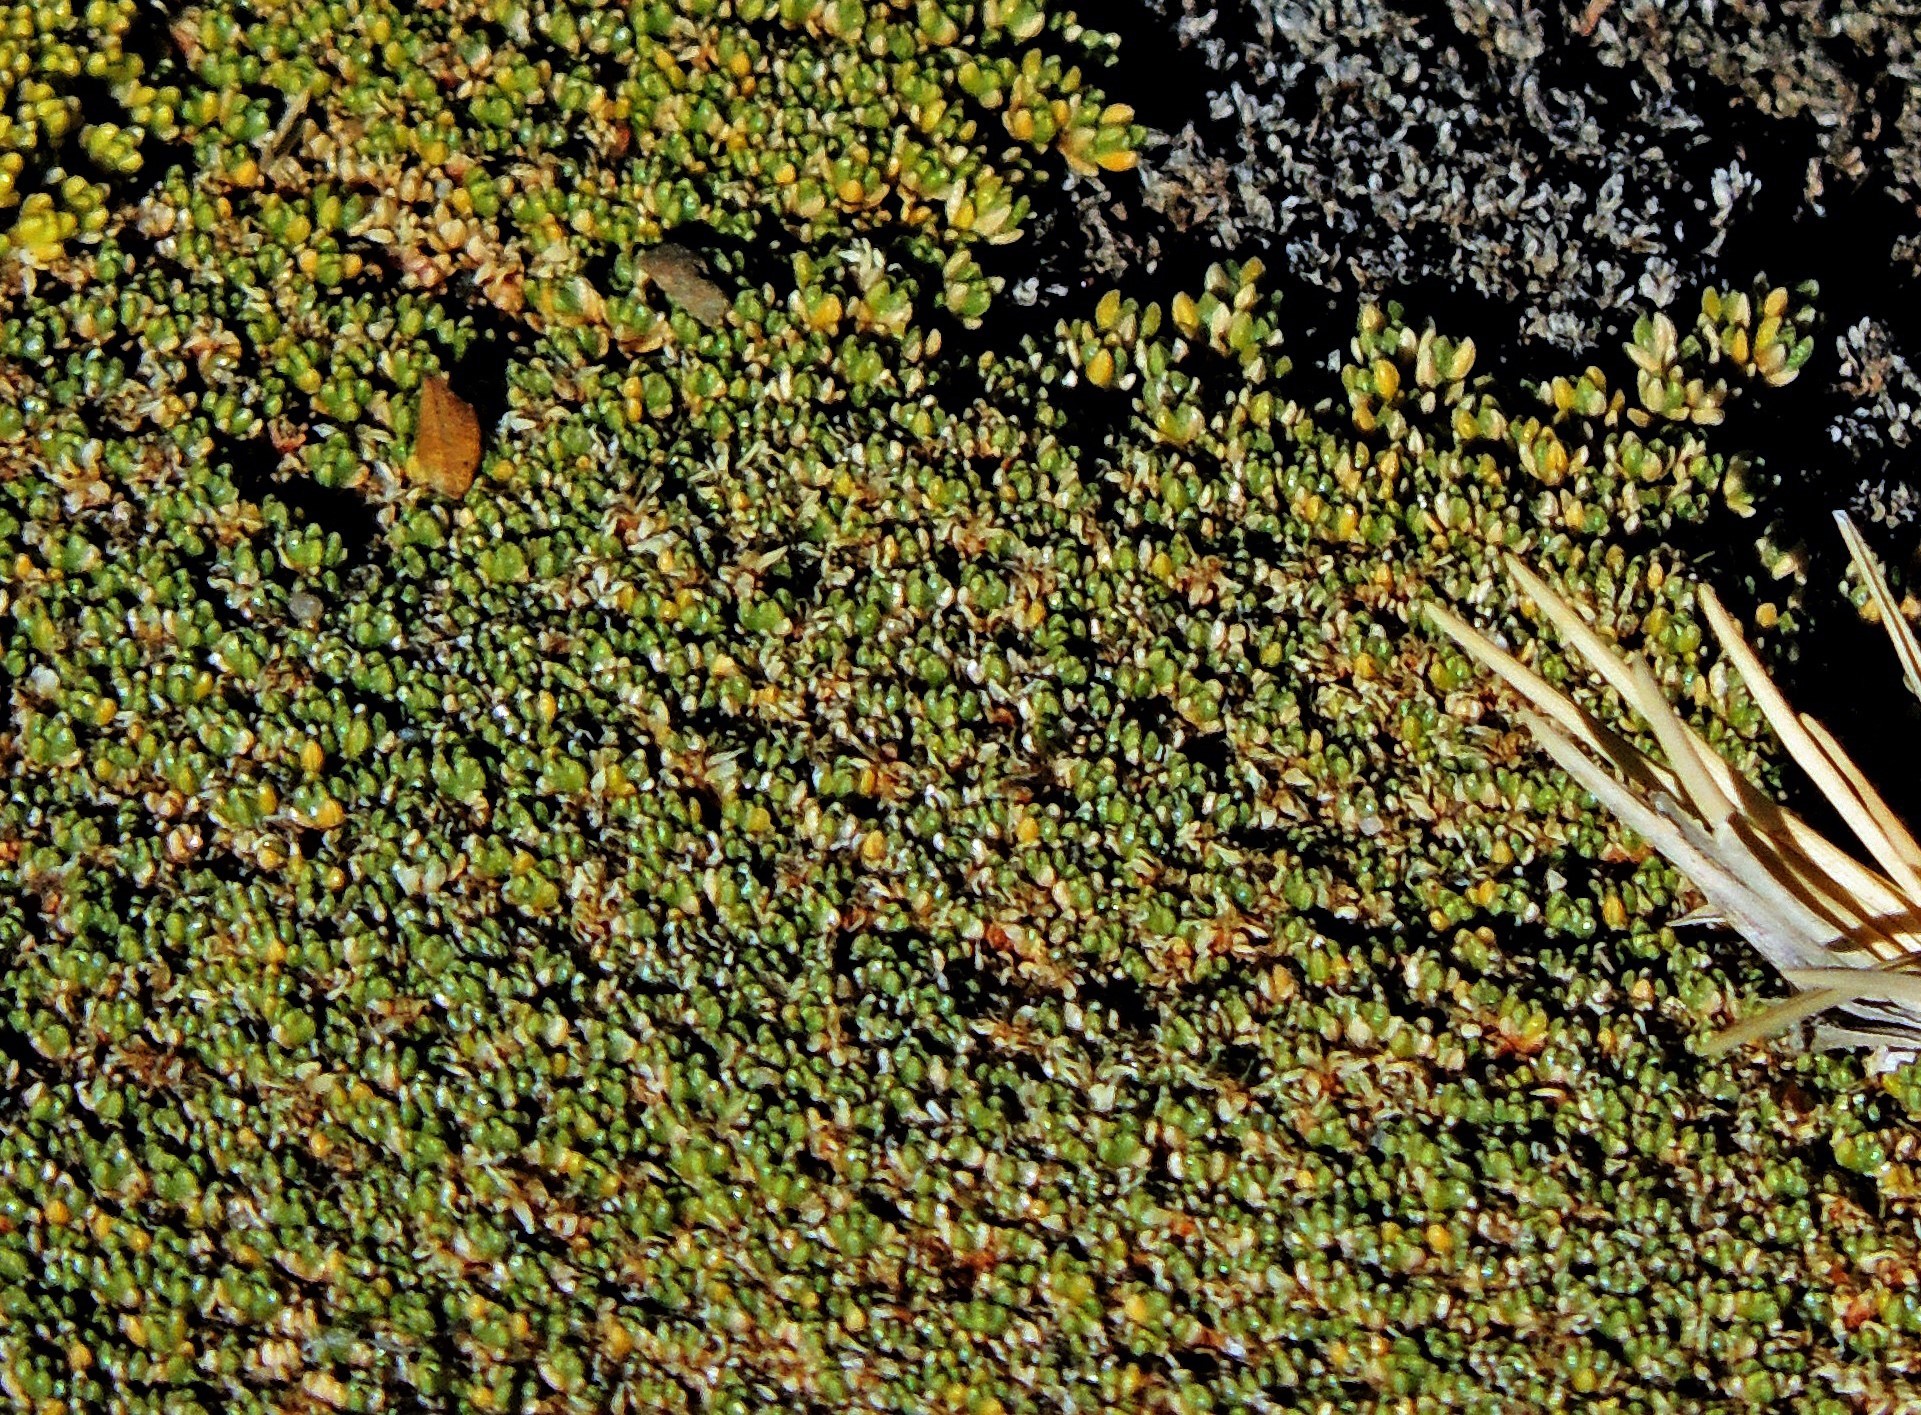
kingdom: Plantae
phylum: Tracheophyta
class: Magnoliopsida
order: Caryophyllales
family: Frankeniaceae
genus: Frankenia
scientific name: Frankenia triandra
